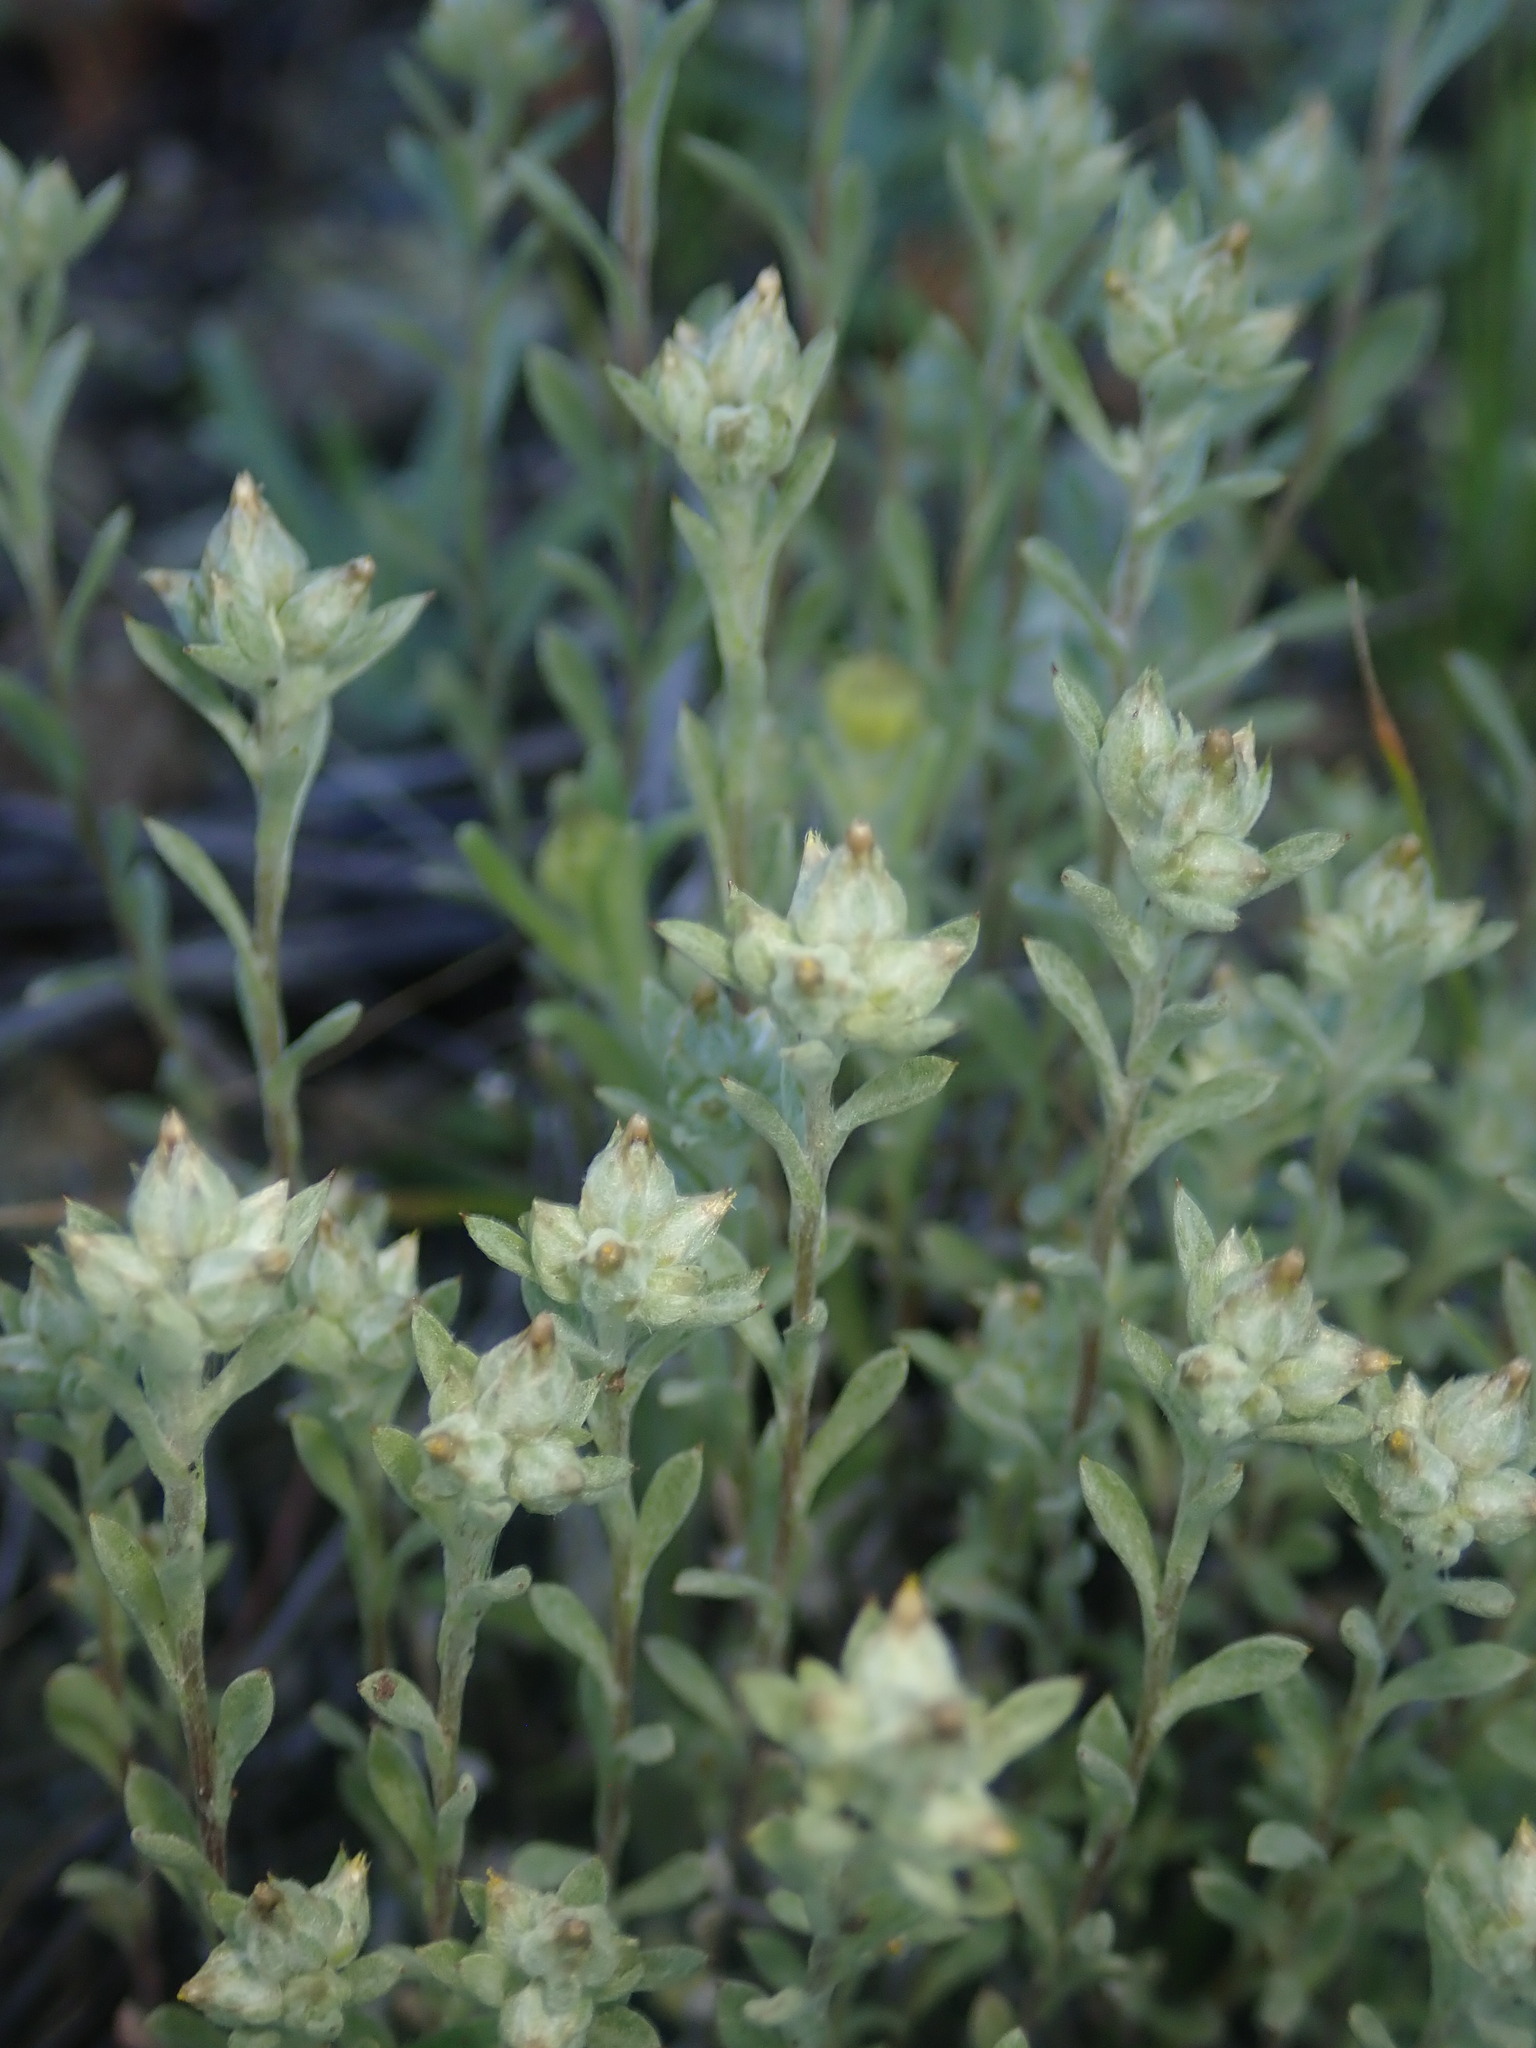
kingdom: Plantae
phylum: Tracheophyta
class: Magnoliopsida
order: Asterales
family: Asteraceae
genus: Logfia
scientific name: Logfia californica
